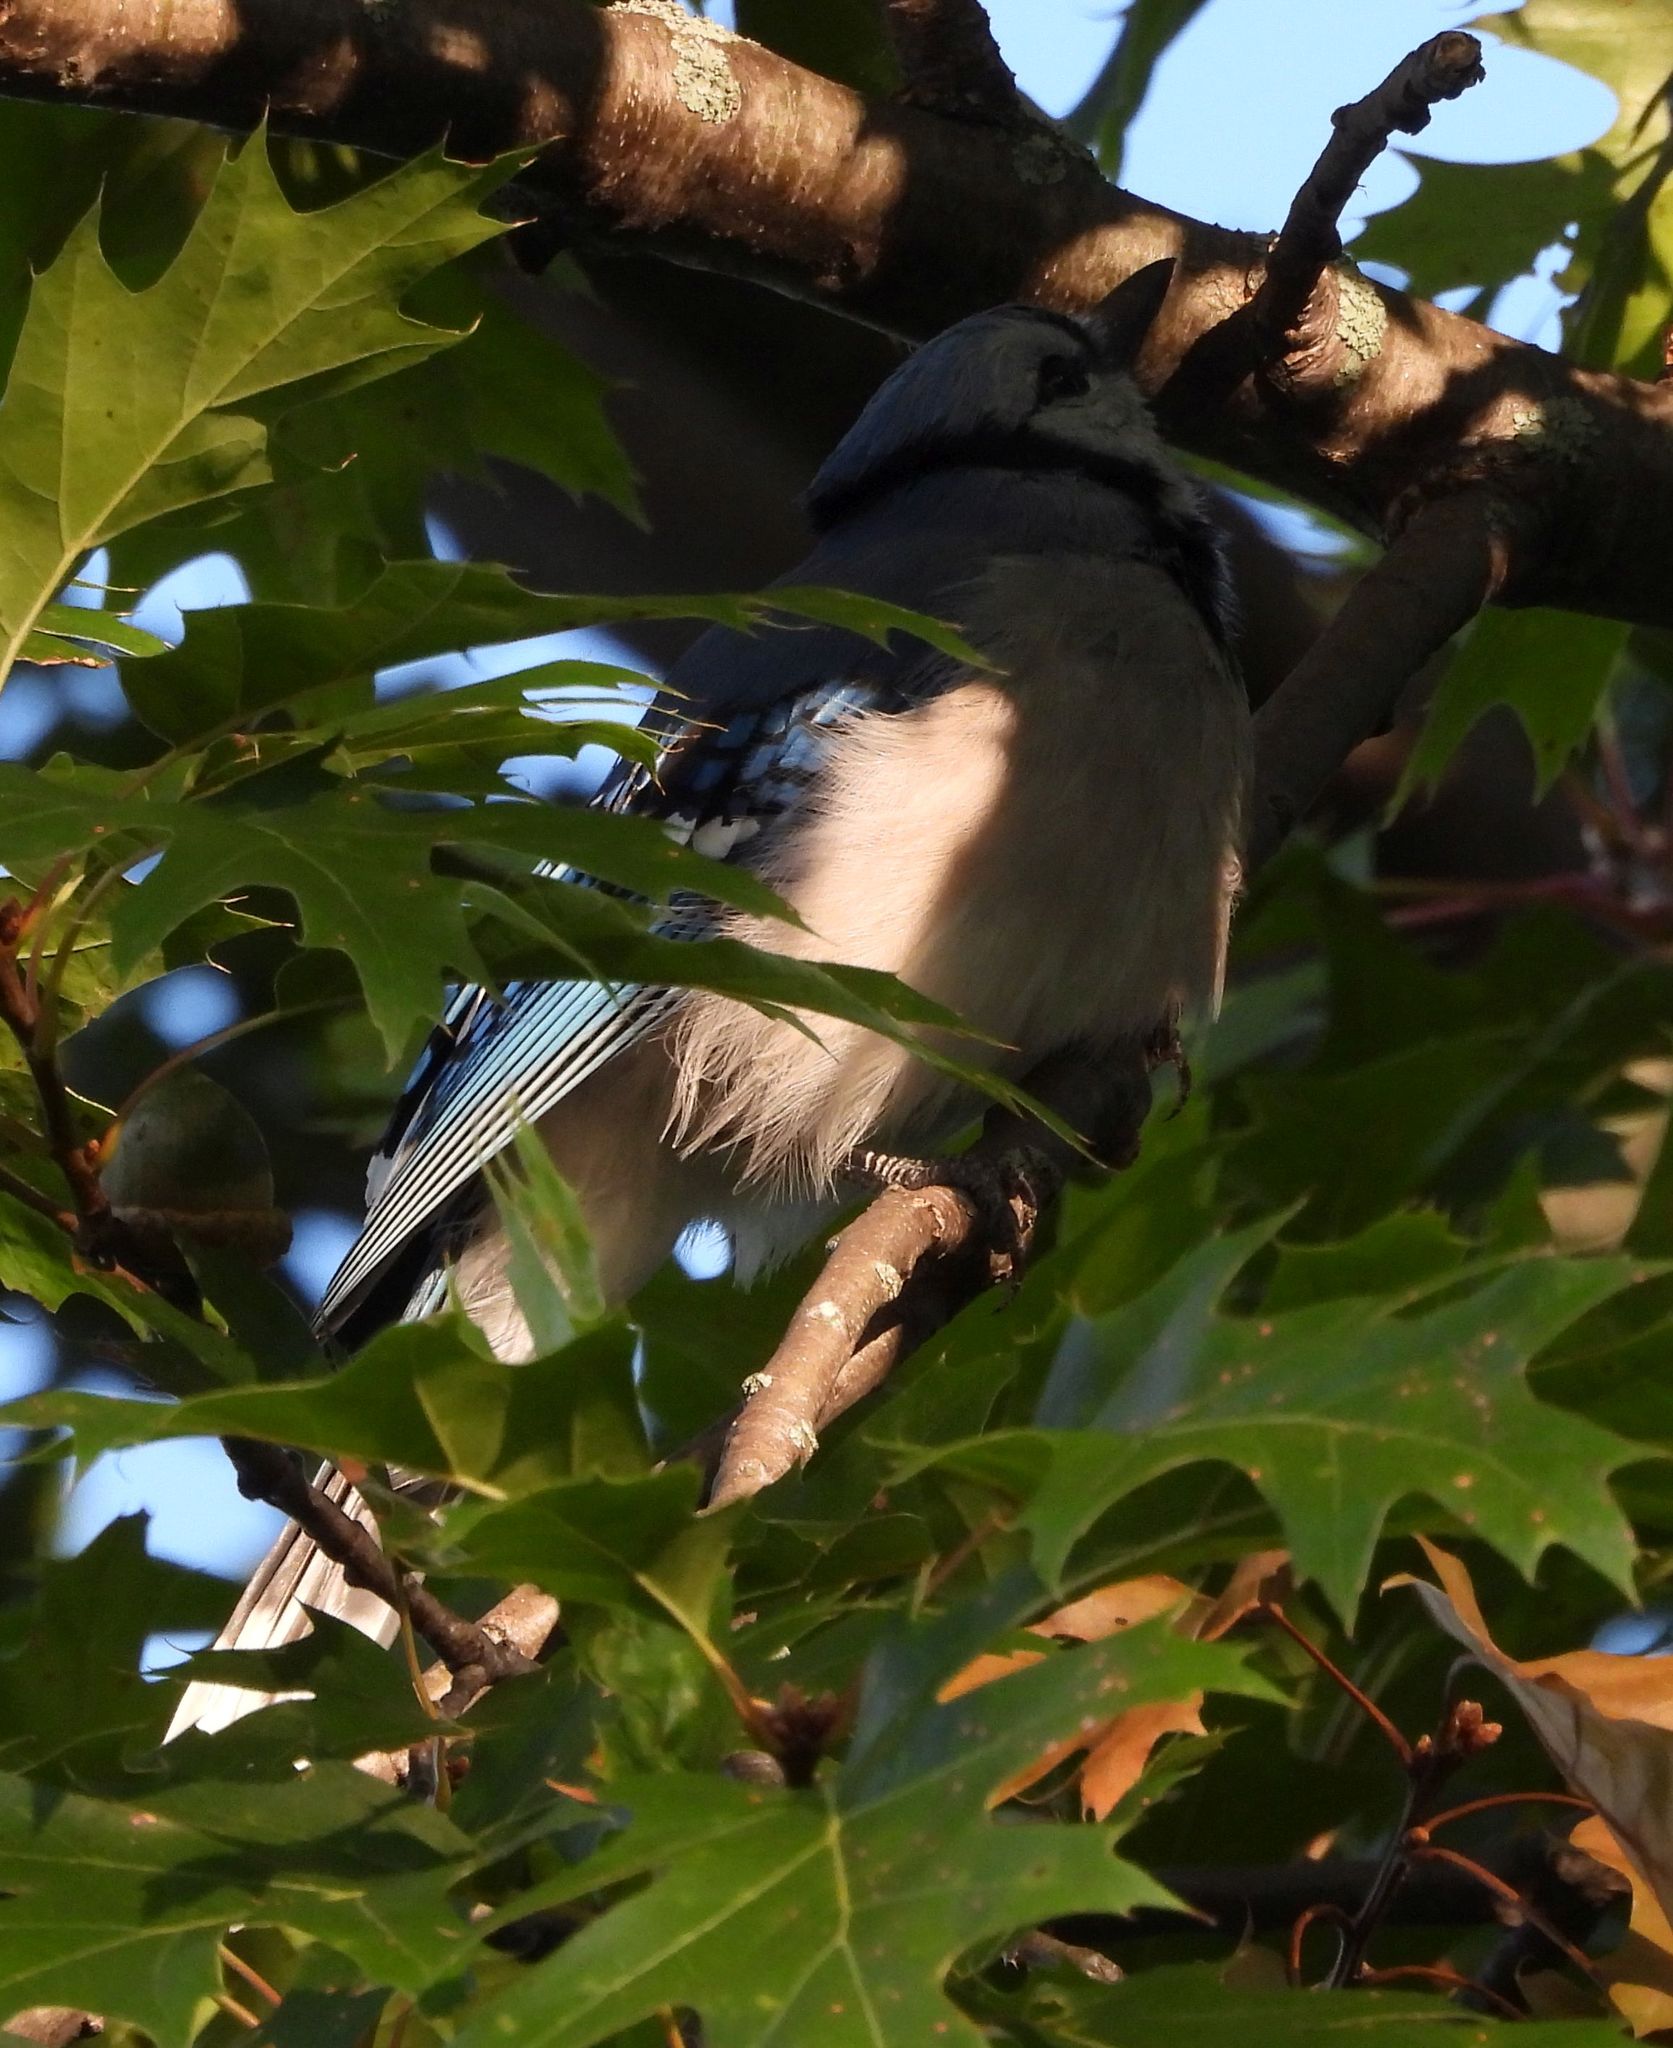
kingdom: Animalia
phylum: Chordata
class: Aves
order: Passeriformes
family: Corvidae
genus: Cyanocitta
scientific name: Cyanocitta cristata
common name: Blue jay
